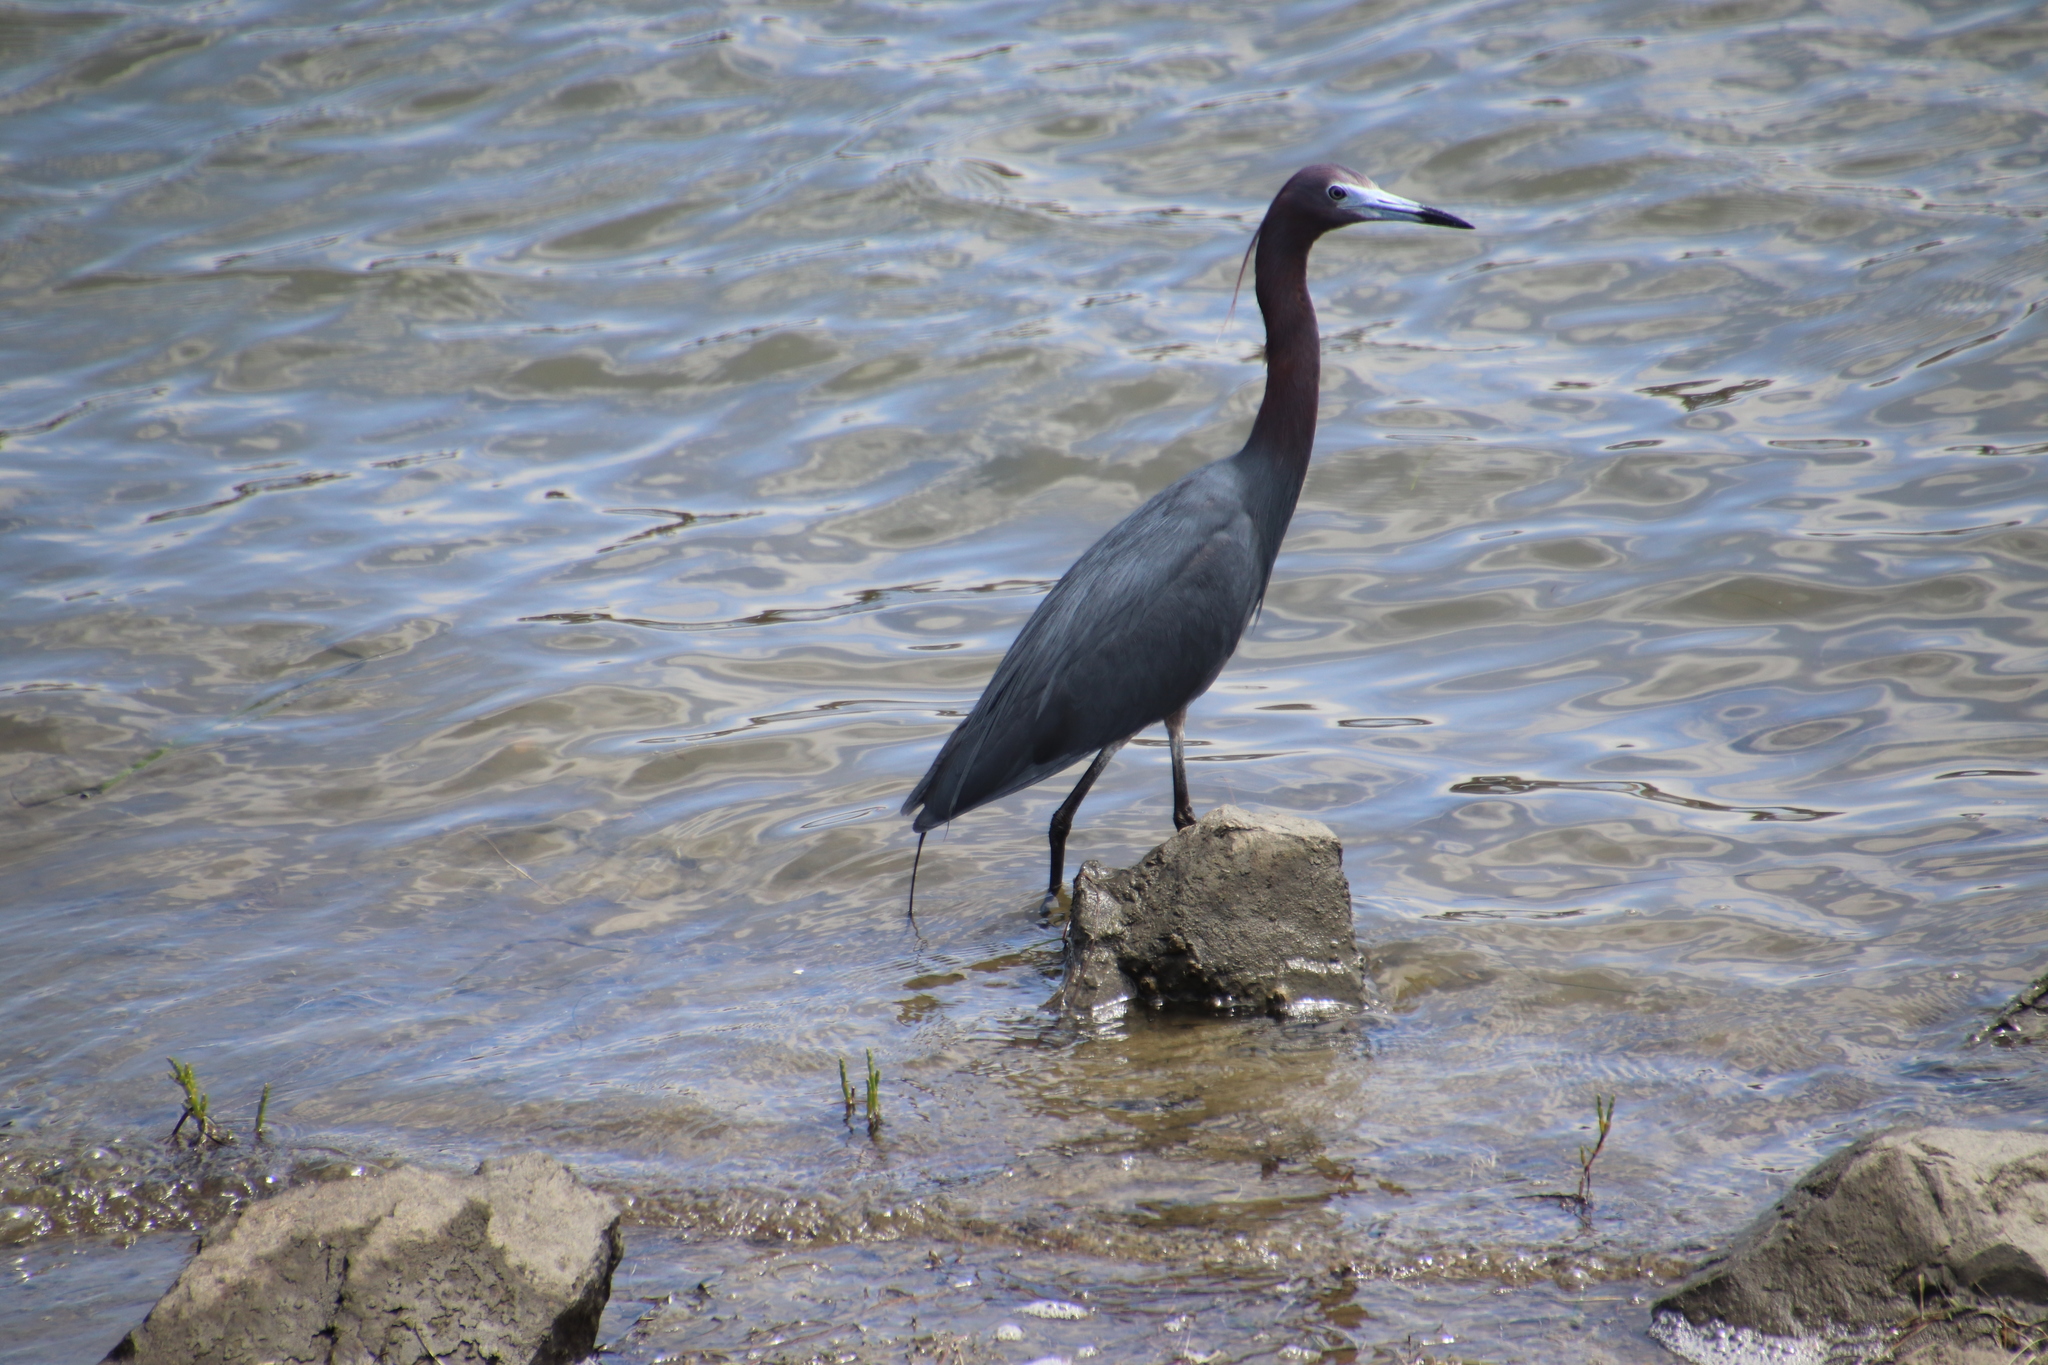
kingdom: Animalia
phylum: Chordata
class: Aves
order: Pelecaniformes
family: Ardeidae
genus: Egretta
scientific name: Egretta caerulea
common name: Little blue heron
